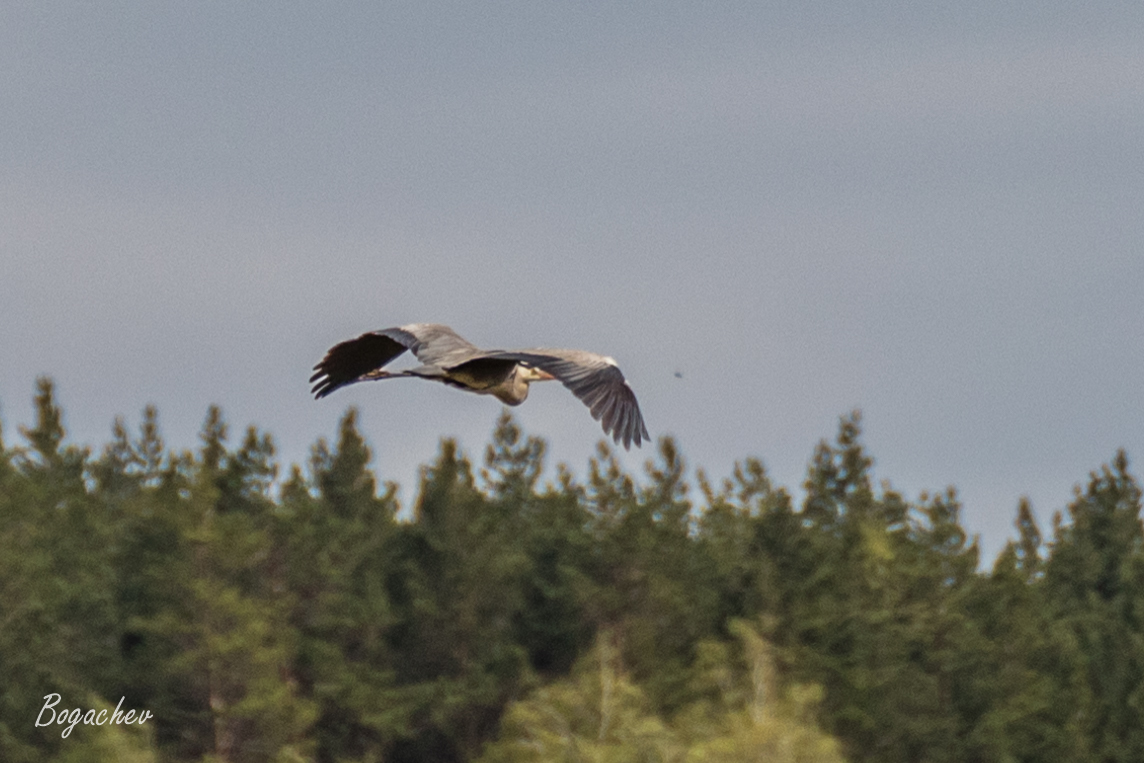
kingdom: Animalia
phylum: Chordata
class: Aves
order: Pelecaniformes
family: Ardeidae
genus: Ardea
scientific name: Ardea cinerea
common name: Grey heron
